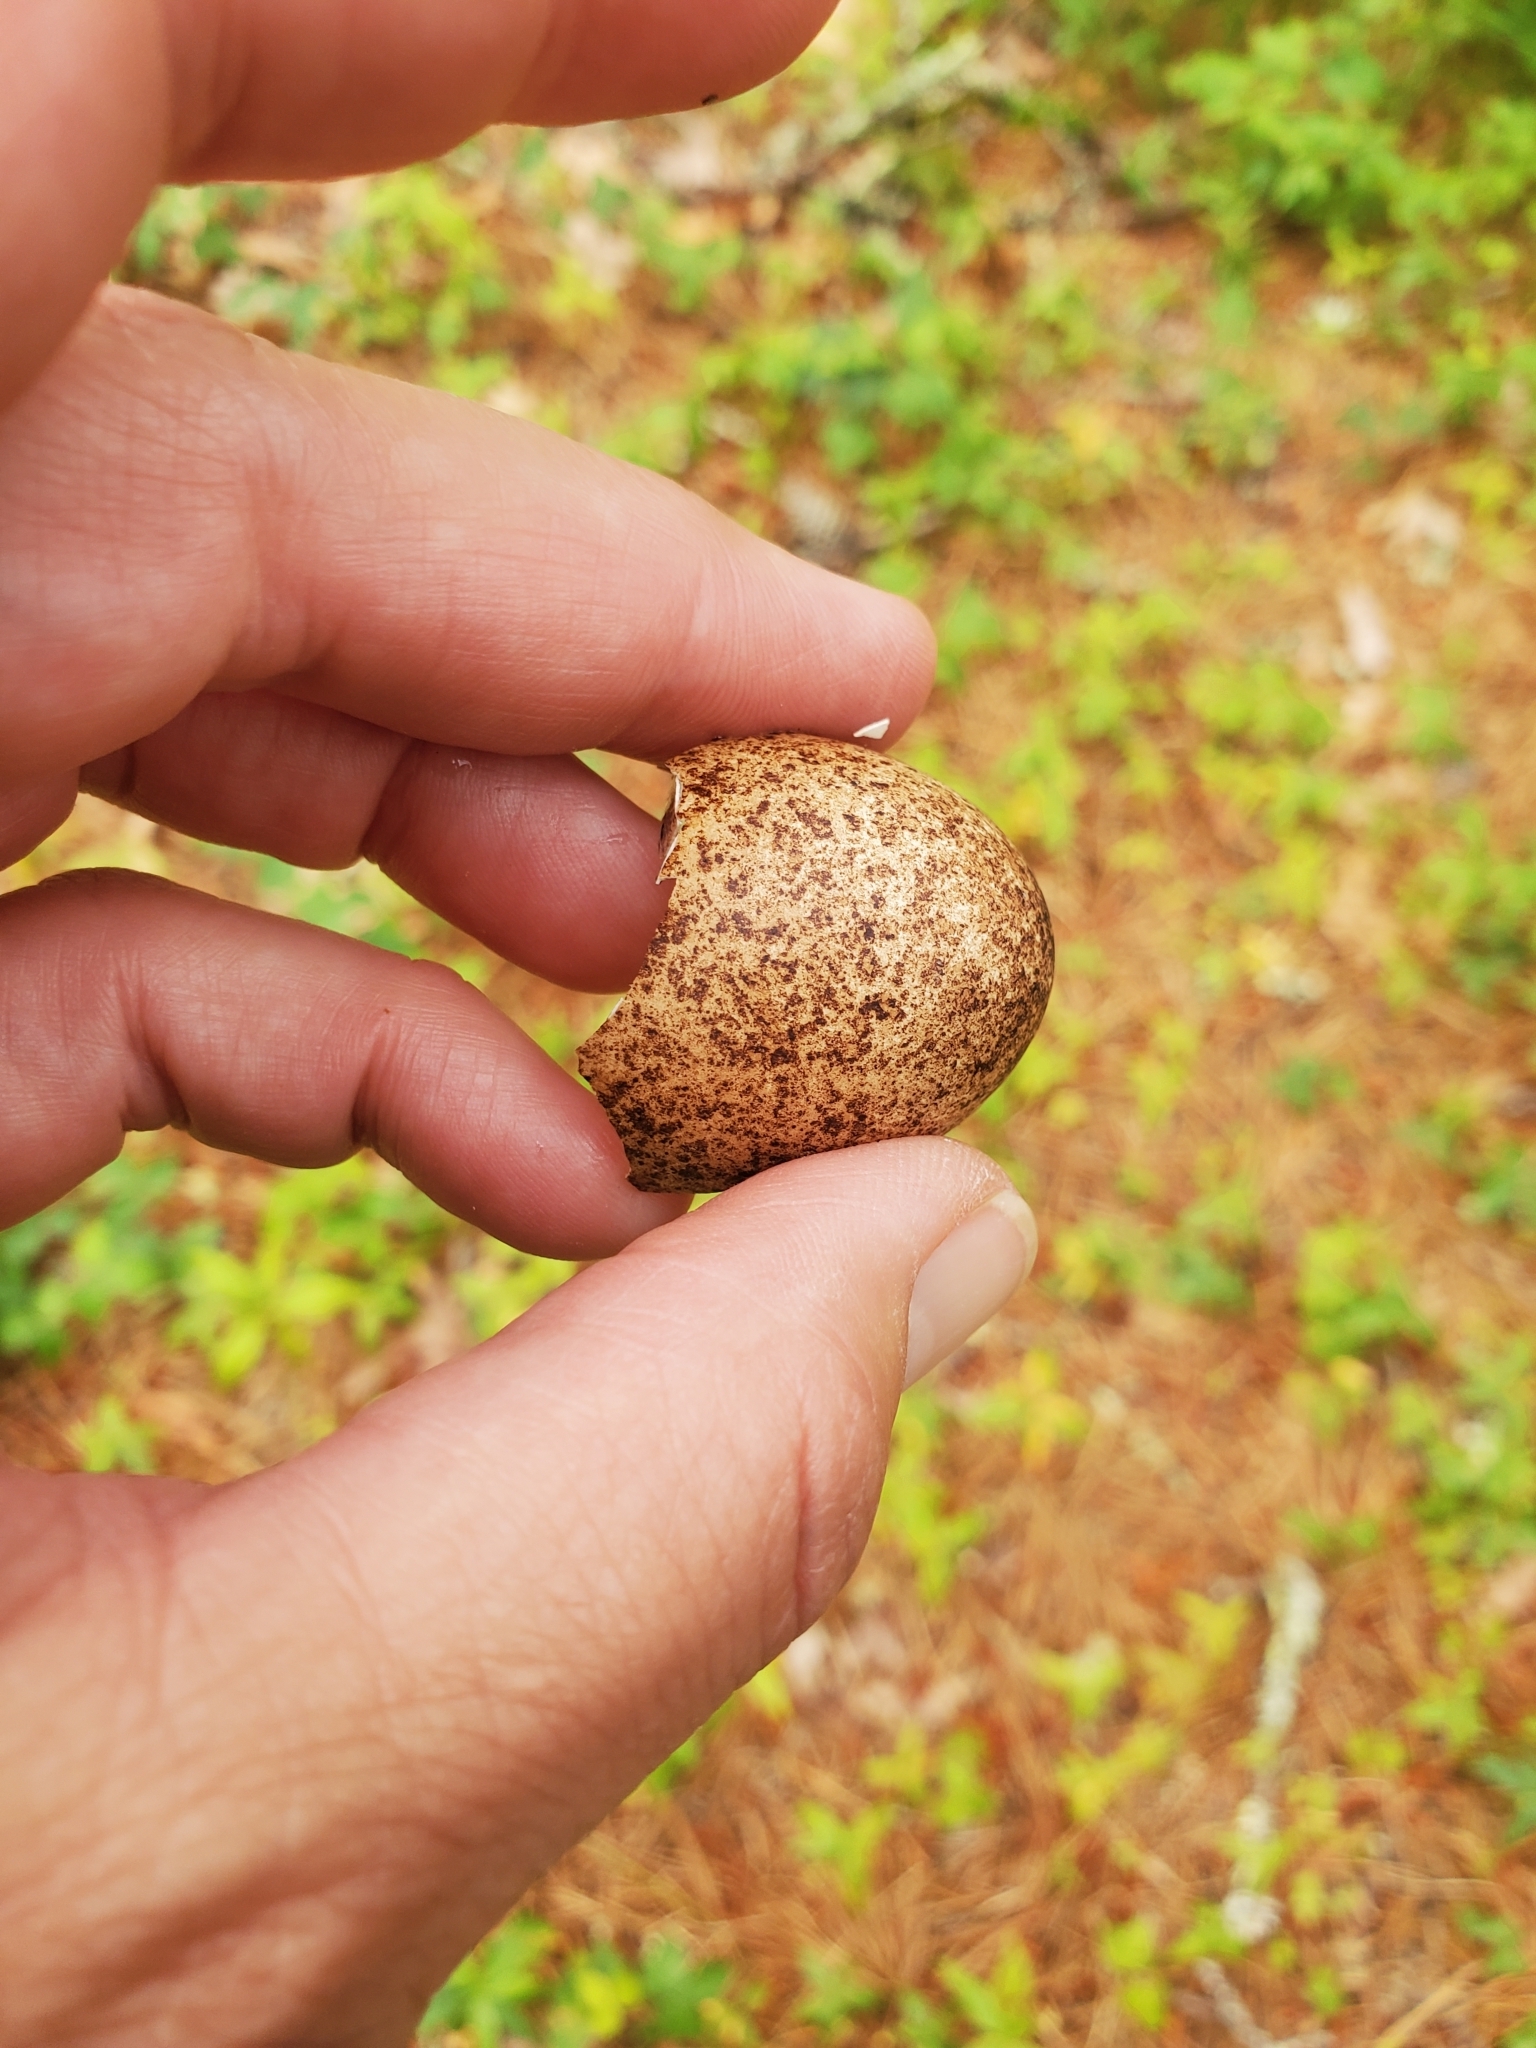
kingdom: Animalia
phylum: Chordata
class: Aves
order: Falconiformes
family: Falconidae
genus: Falco
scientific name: Falco columbarius
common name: Merlin
